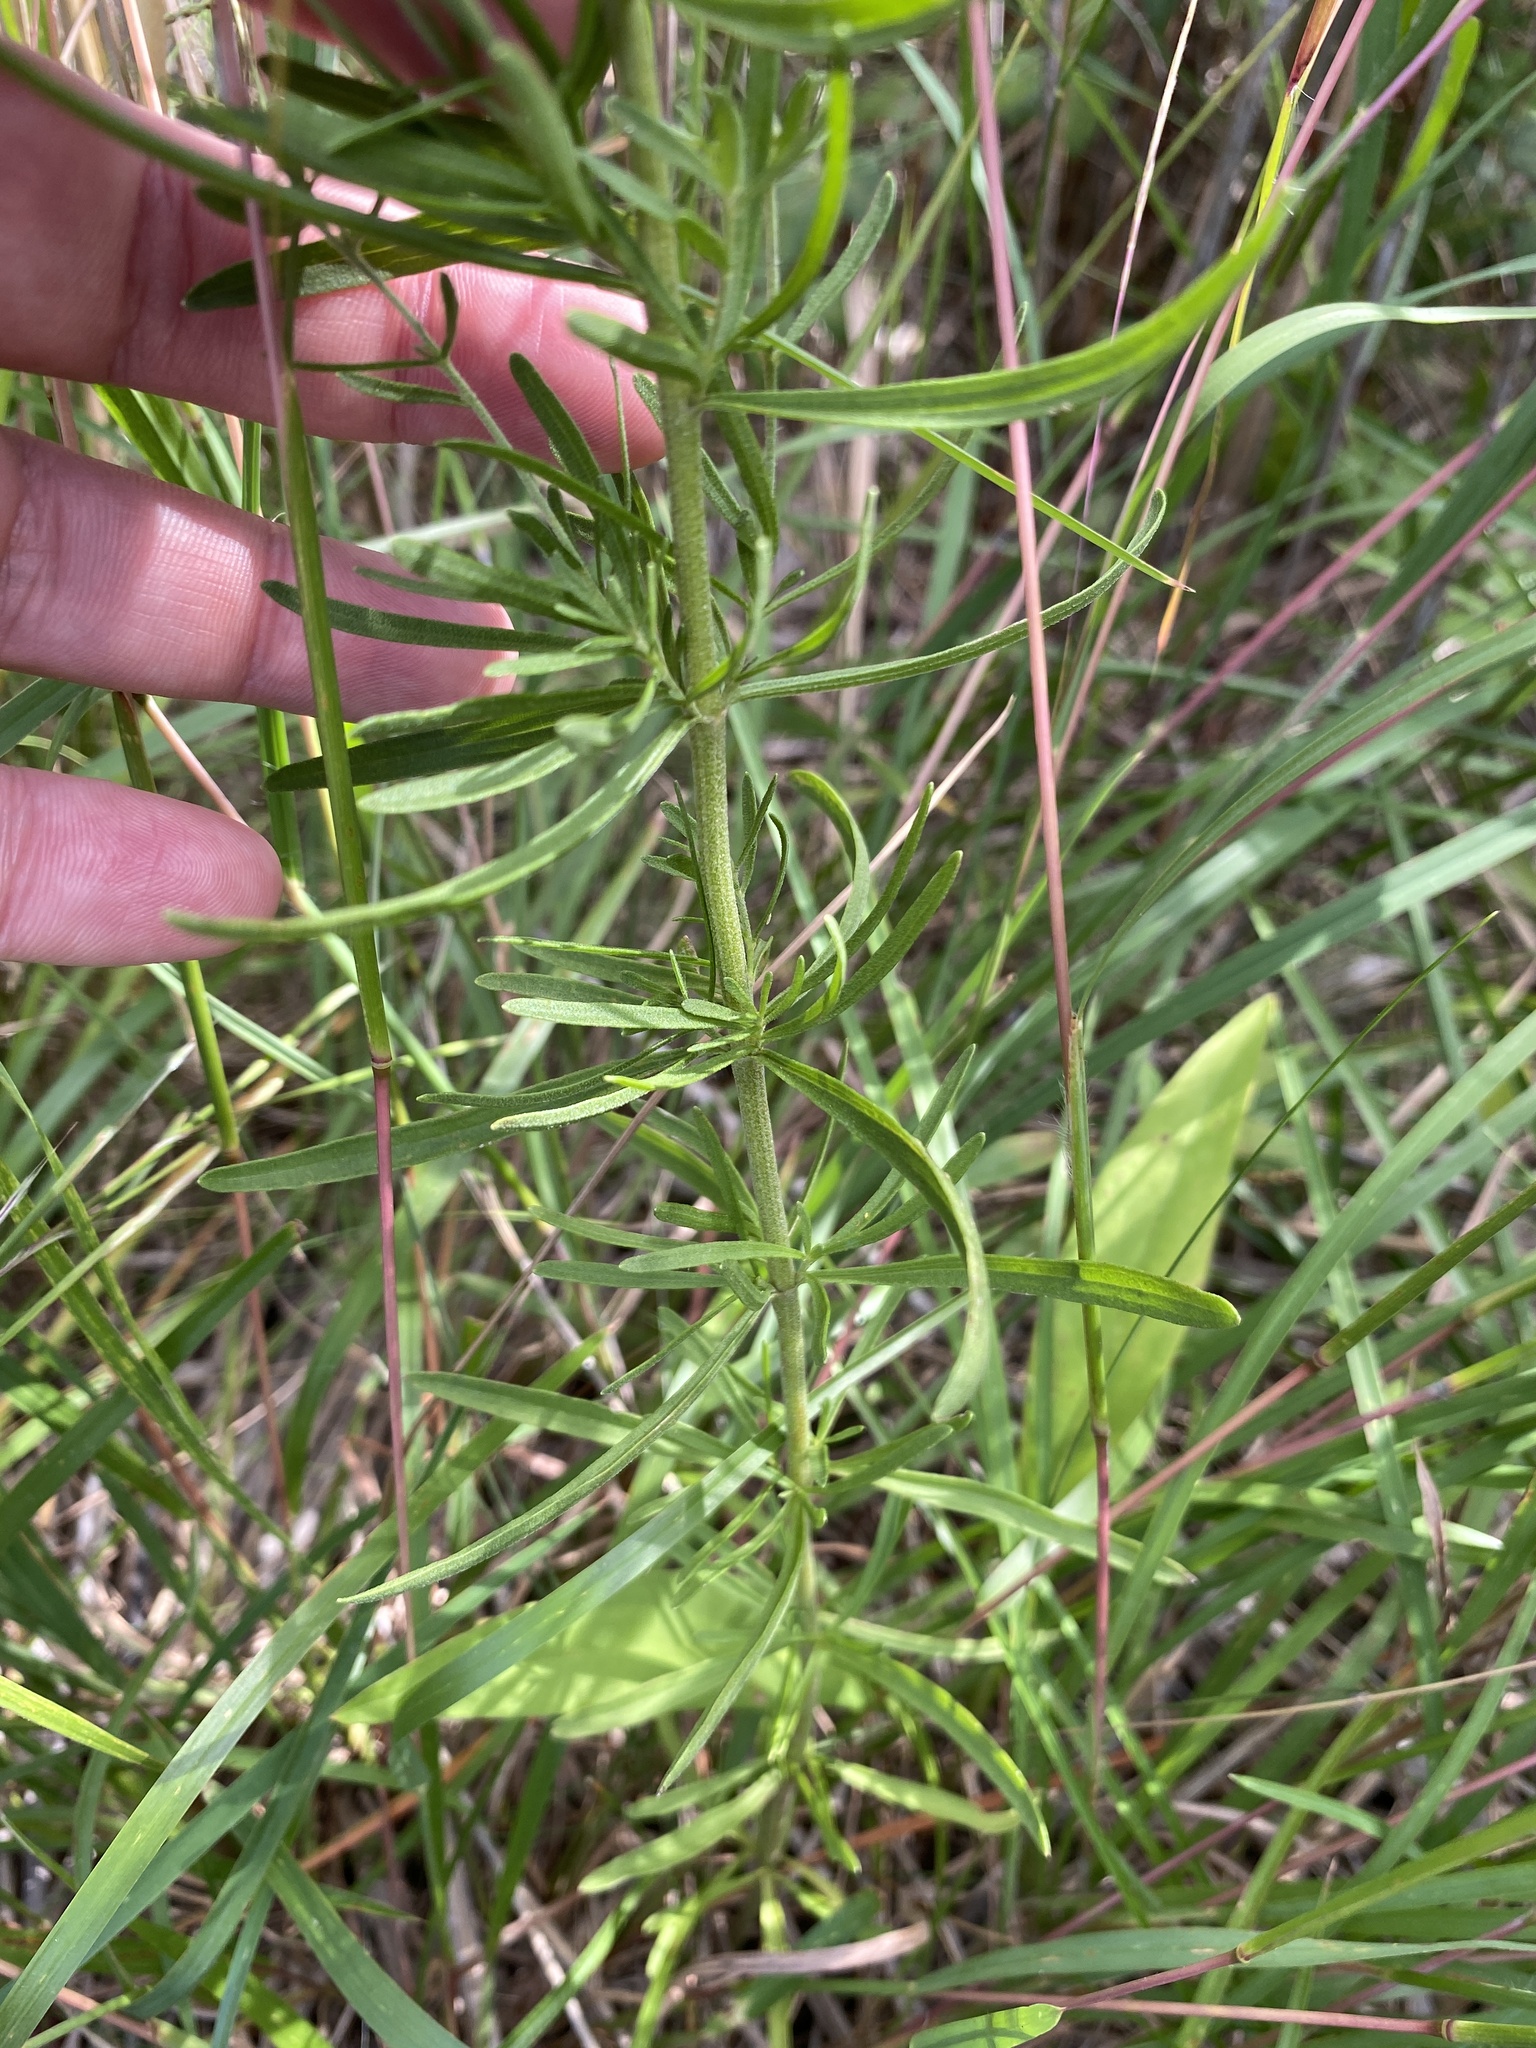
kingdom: Plantae
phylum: Tracheophyta
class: Magnoliopsida
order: Asterales
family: Asteraceae
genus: Eupatorium
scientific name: Eupatorium hyssopifolium
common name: Hyssop-leaf thoroughwort
